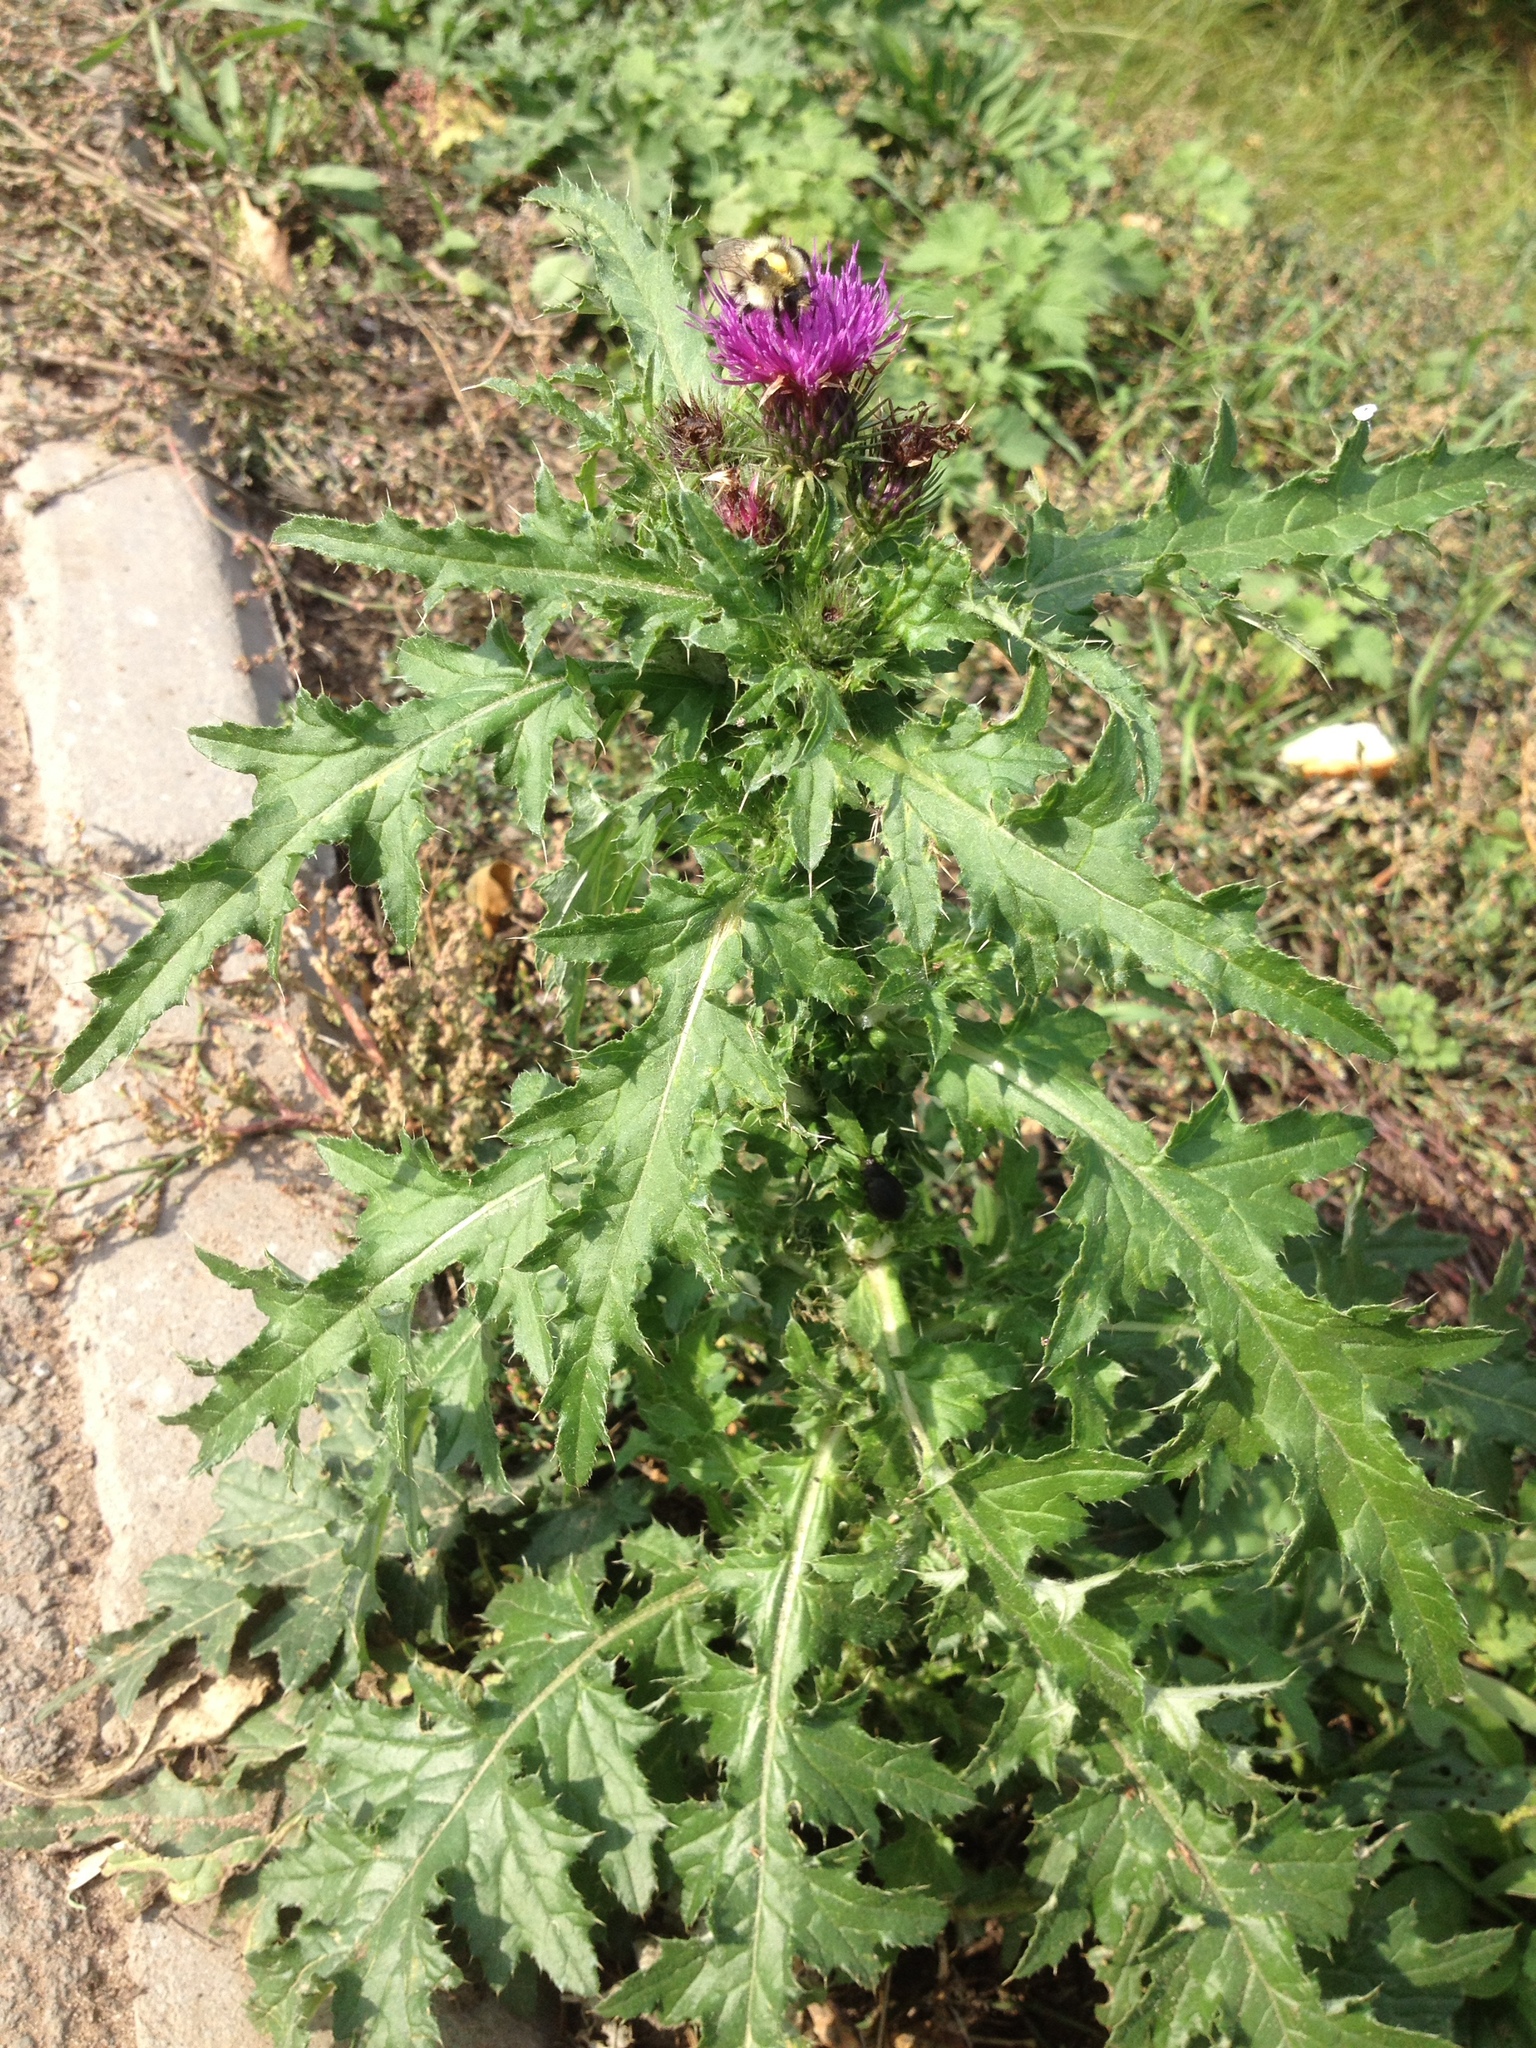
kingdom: Plantae
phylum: Tracheophyta
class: Magnoliopsida
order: Asterales
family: Asteraceae
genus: Carduus
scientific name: Carduus crispus
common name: Welted thistle
